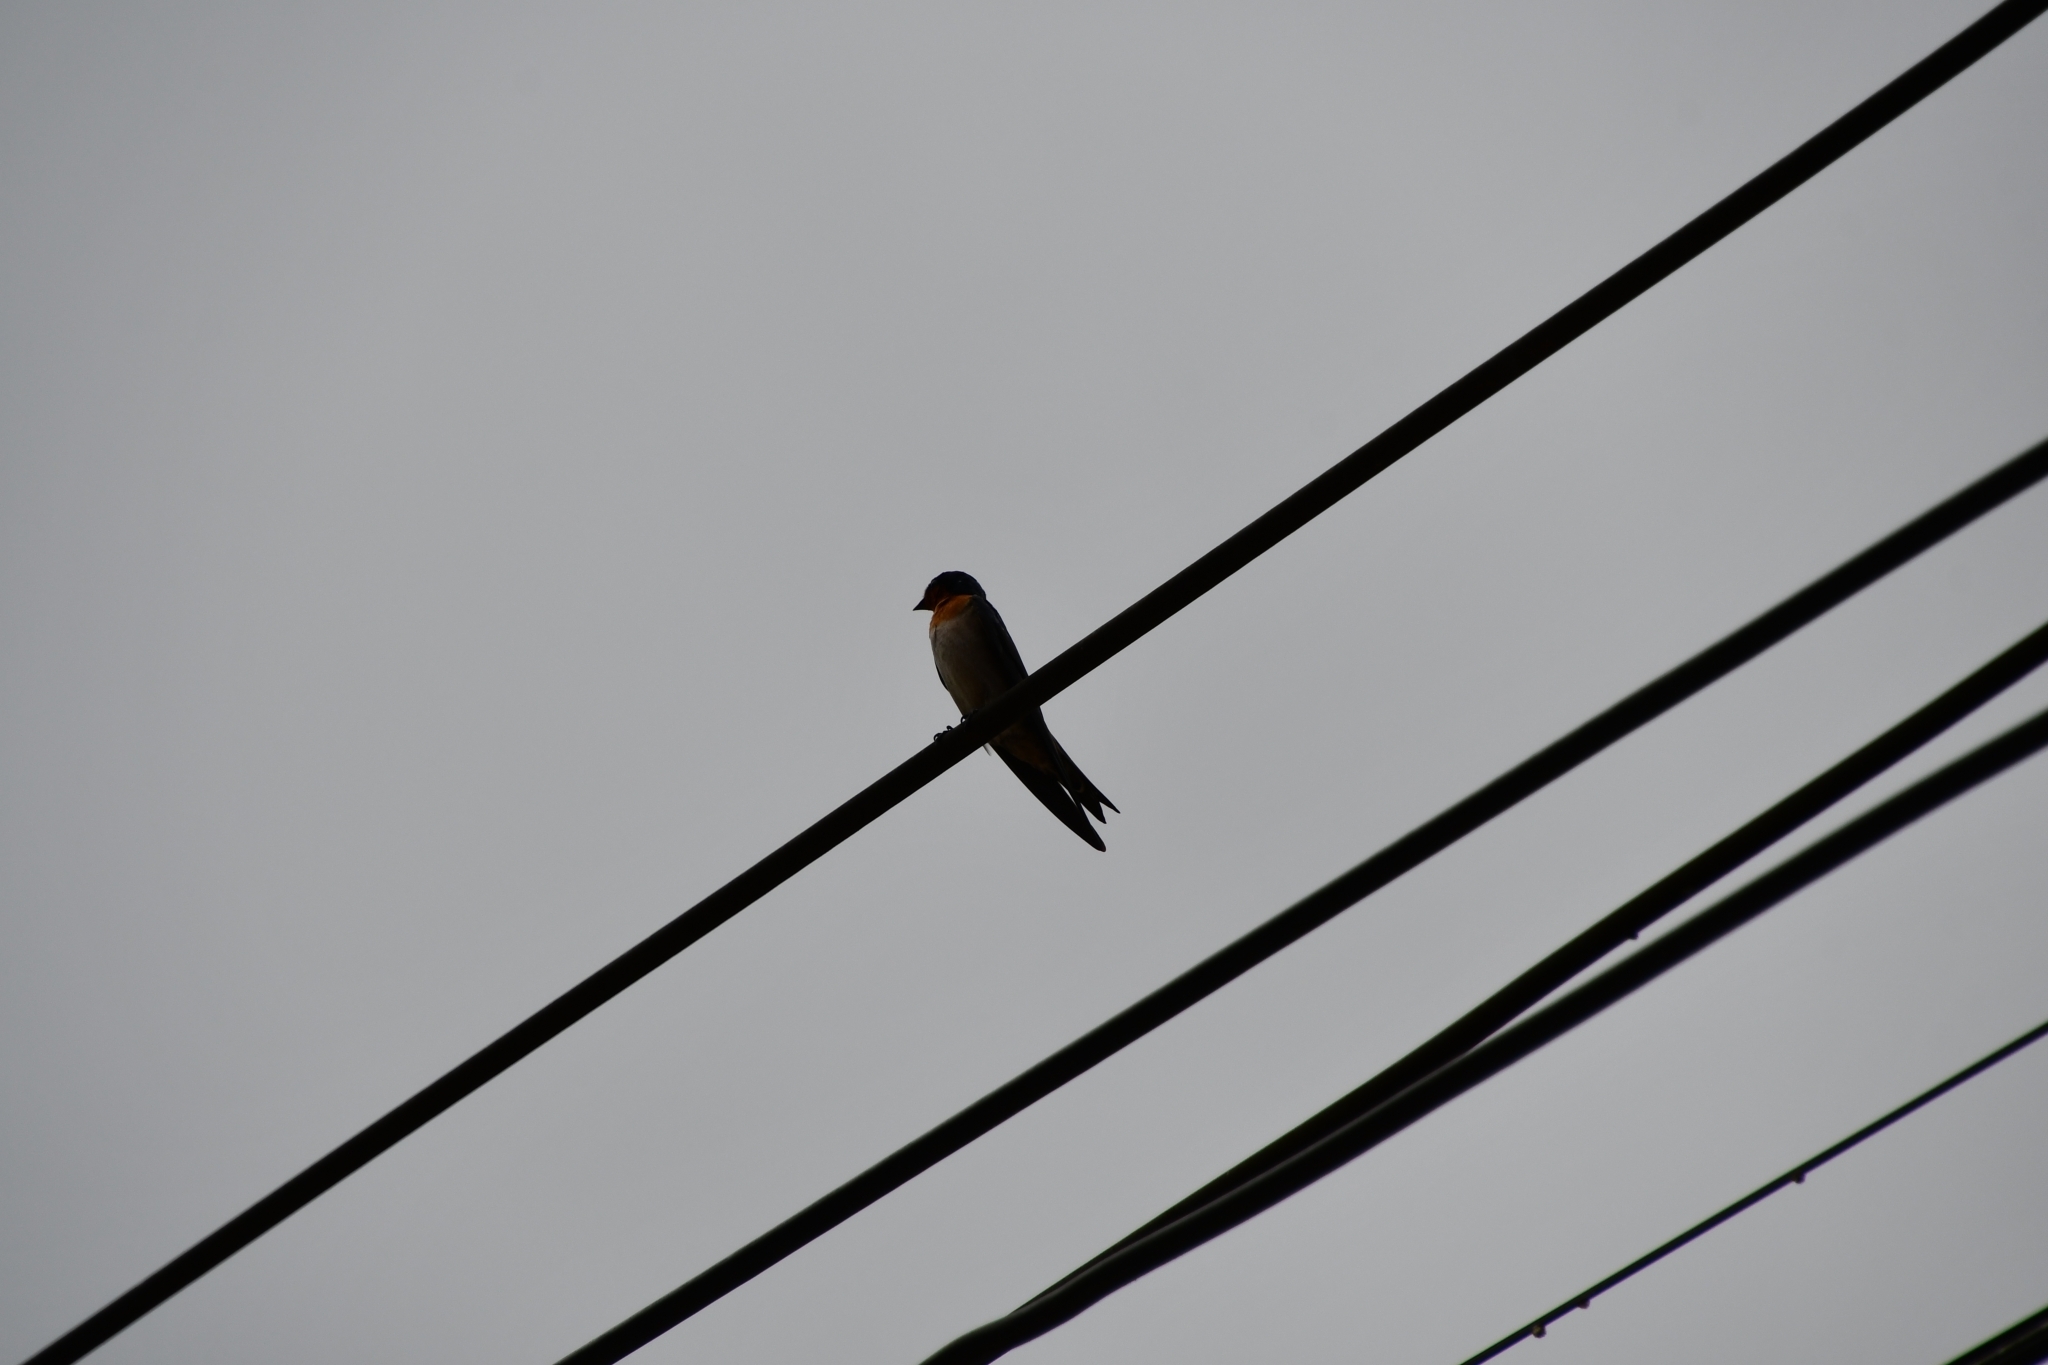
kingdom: Animalia
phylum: Chordata
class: Aves
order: Passeriformes
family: Hirundinidae
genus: Hirundo
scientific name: Hirundo tahitica
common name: Pacific swallow
